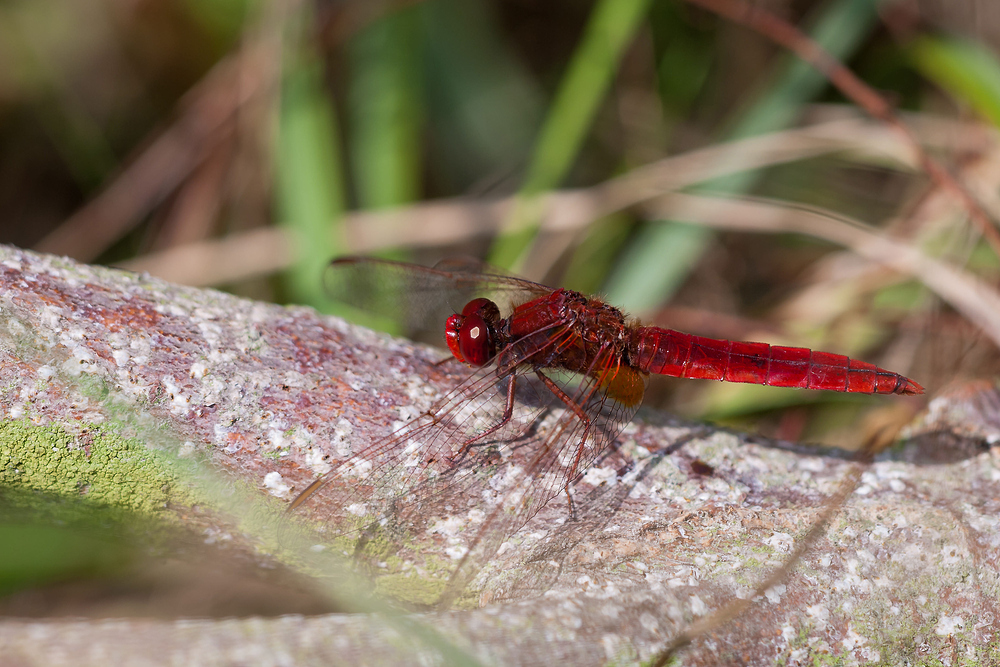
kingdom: Animalia
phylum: Arthropoda
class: Insecta
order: Odonata
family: Libellulidae
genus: Crocothemis
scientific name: Crocothemis erythraea
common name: Scarlet dragonfly
